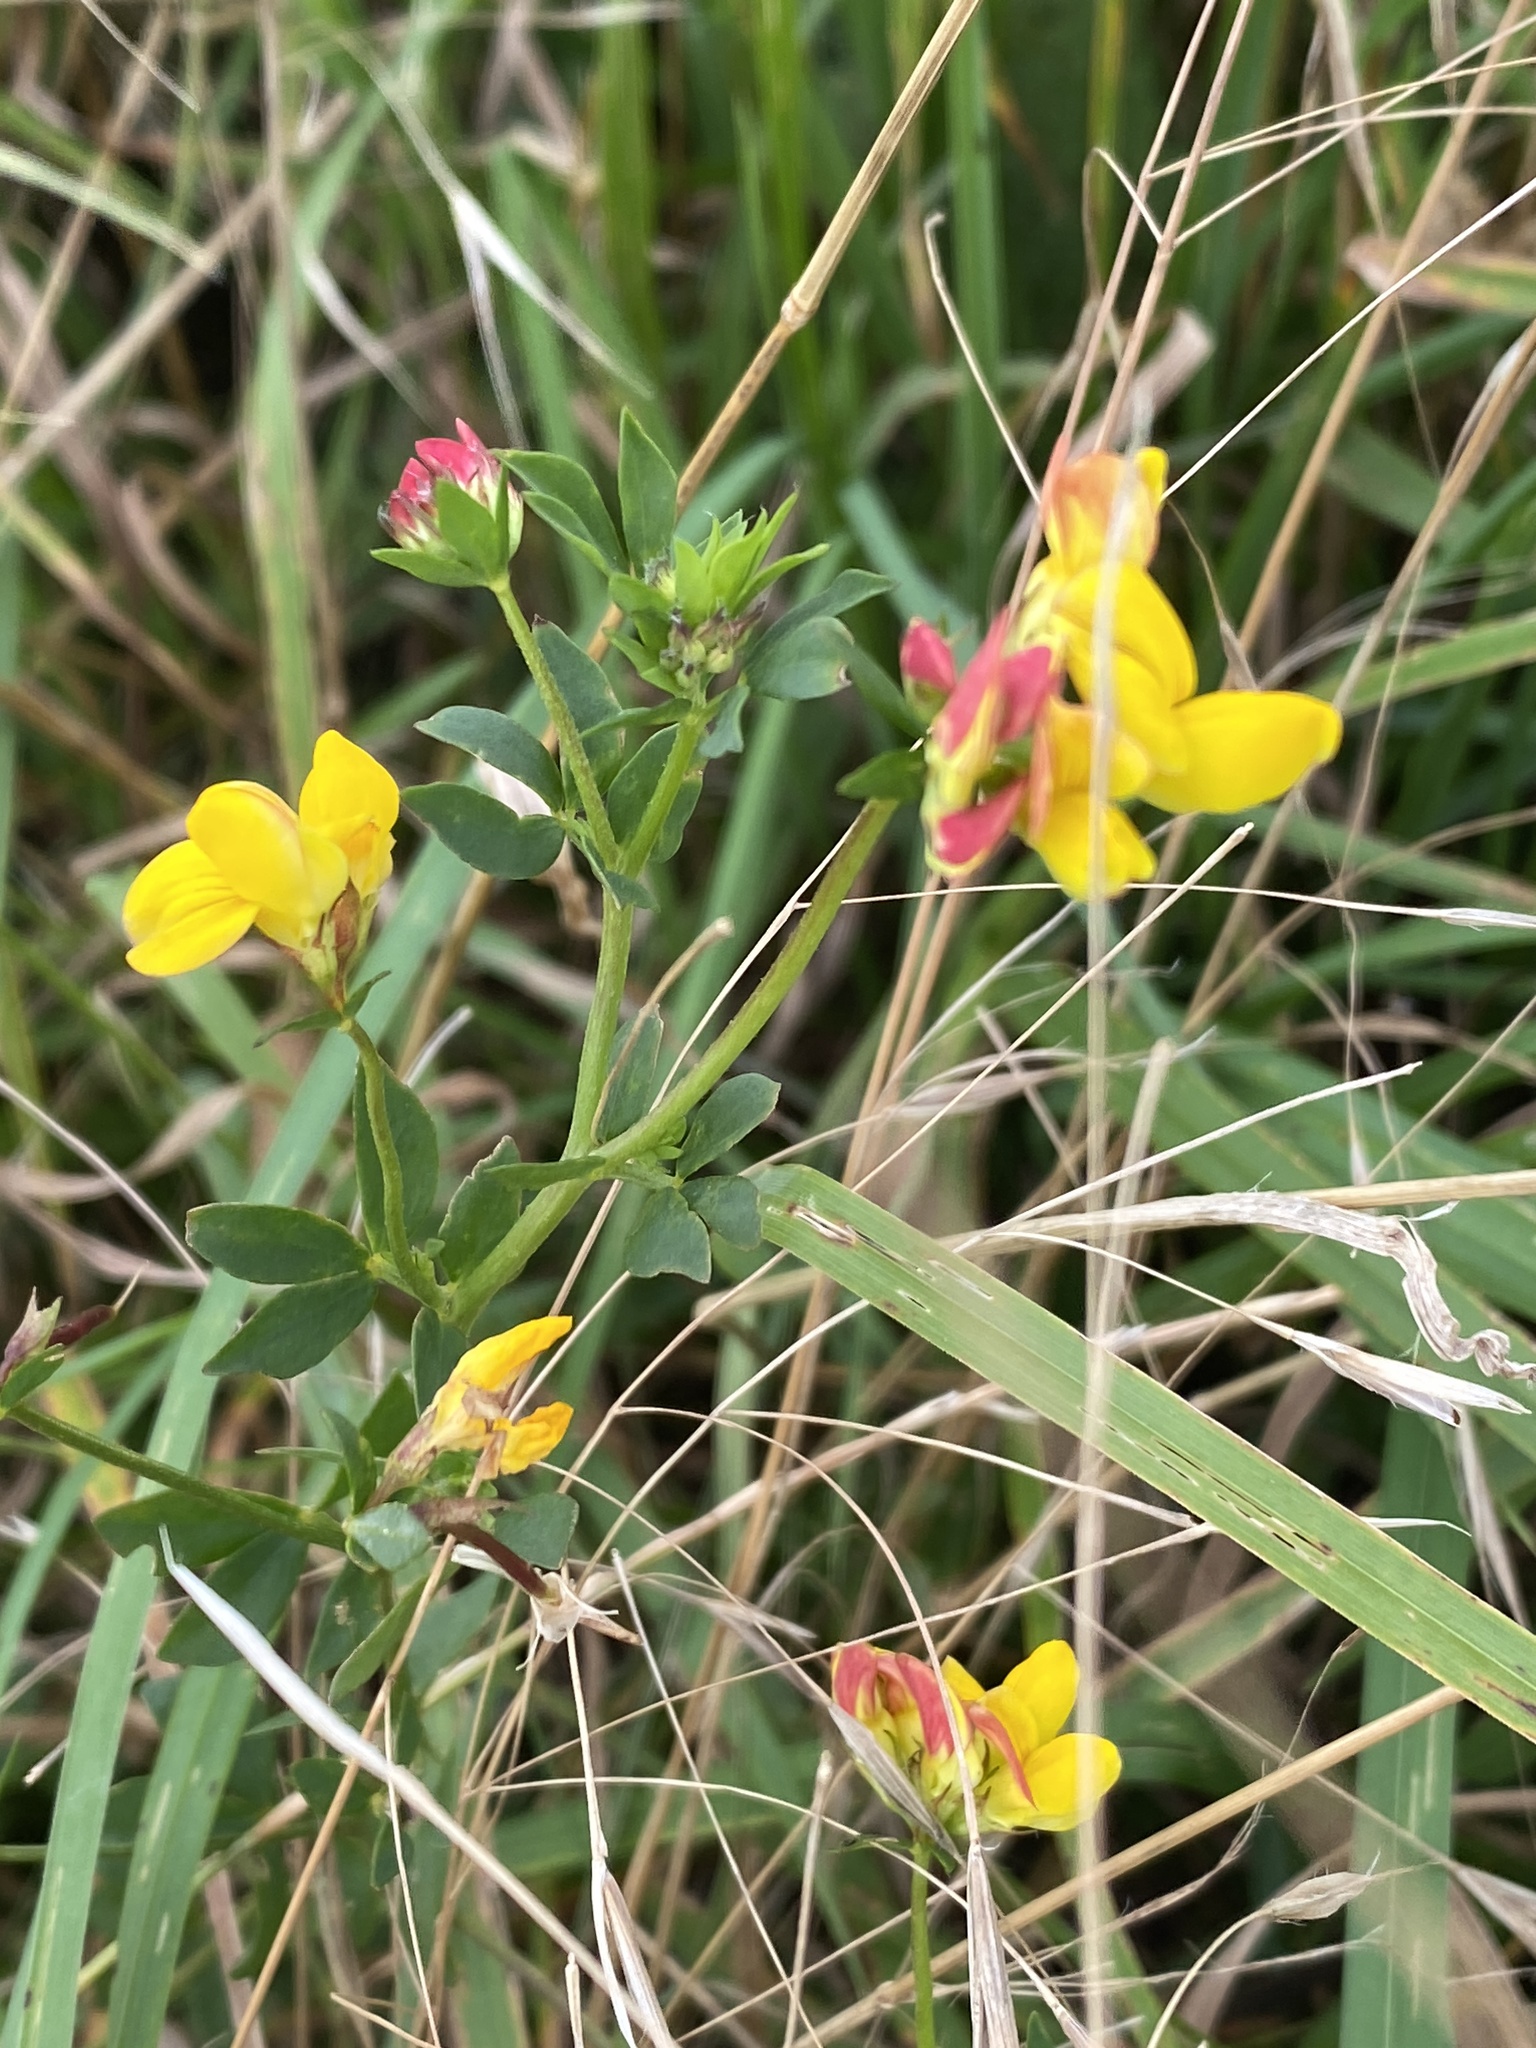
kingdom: Plantae
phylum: Tracheophyta
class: Magnoliopsida
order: Fabales
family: Fabaceae
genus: Lotus
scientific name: Lotus corniculatus
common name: Common bird's-foot-trefoil
